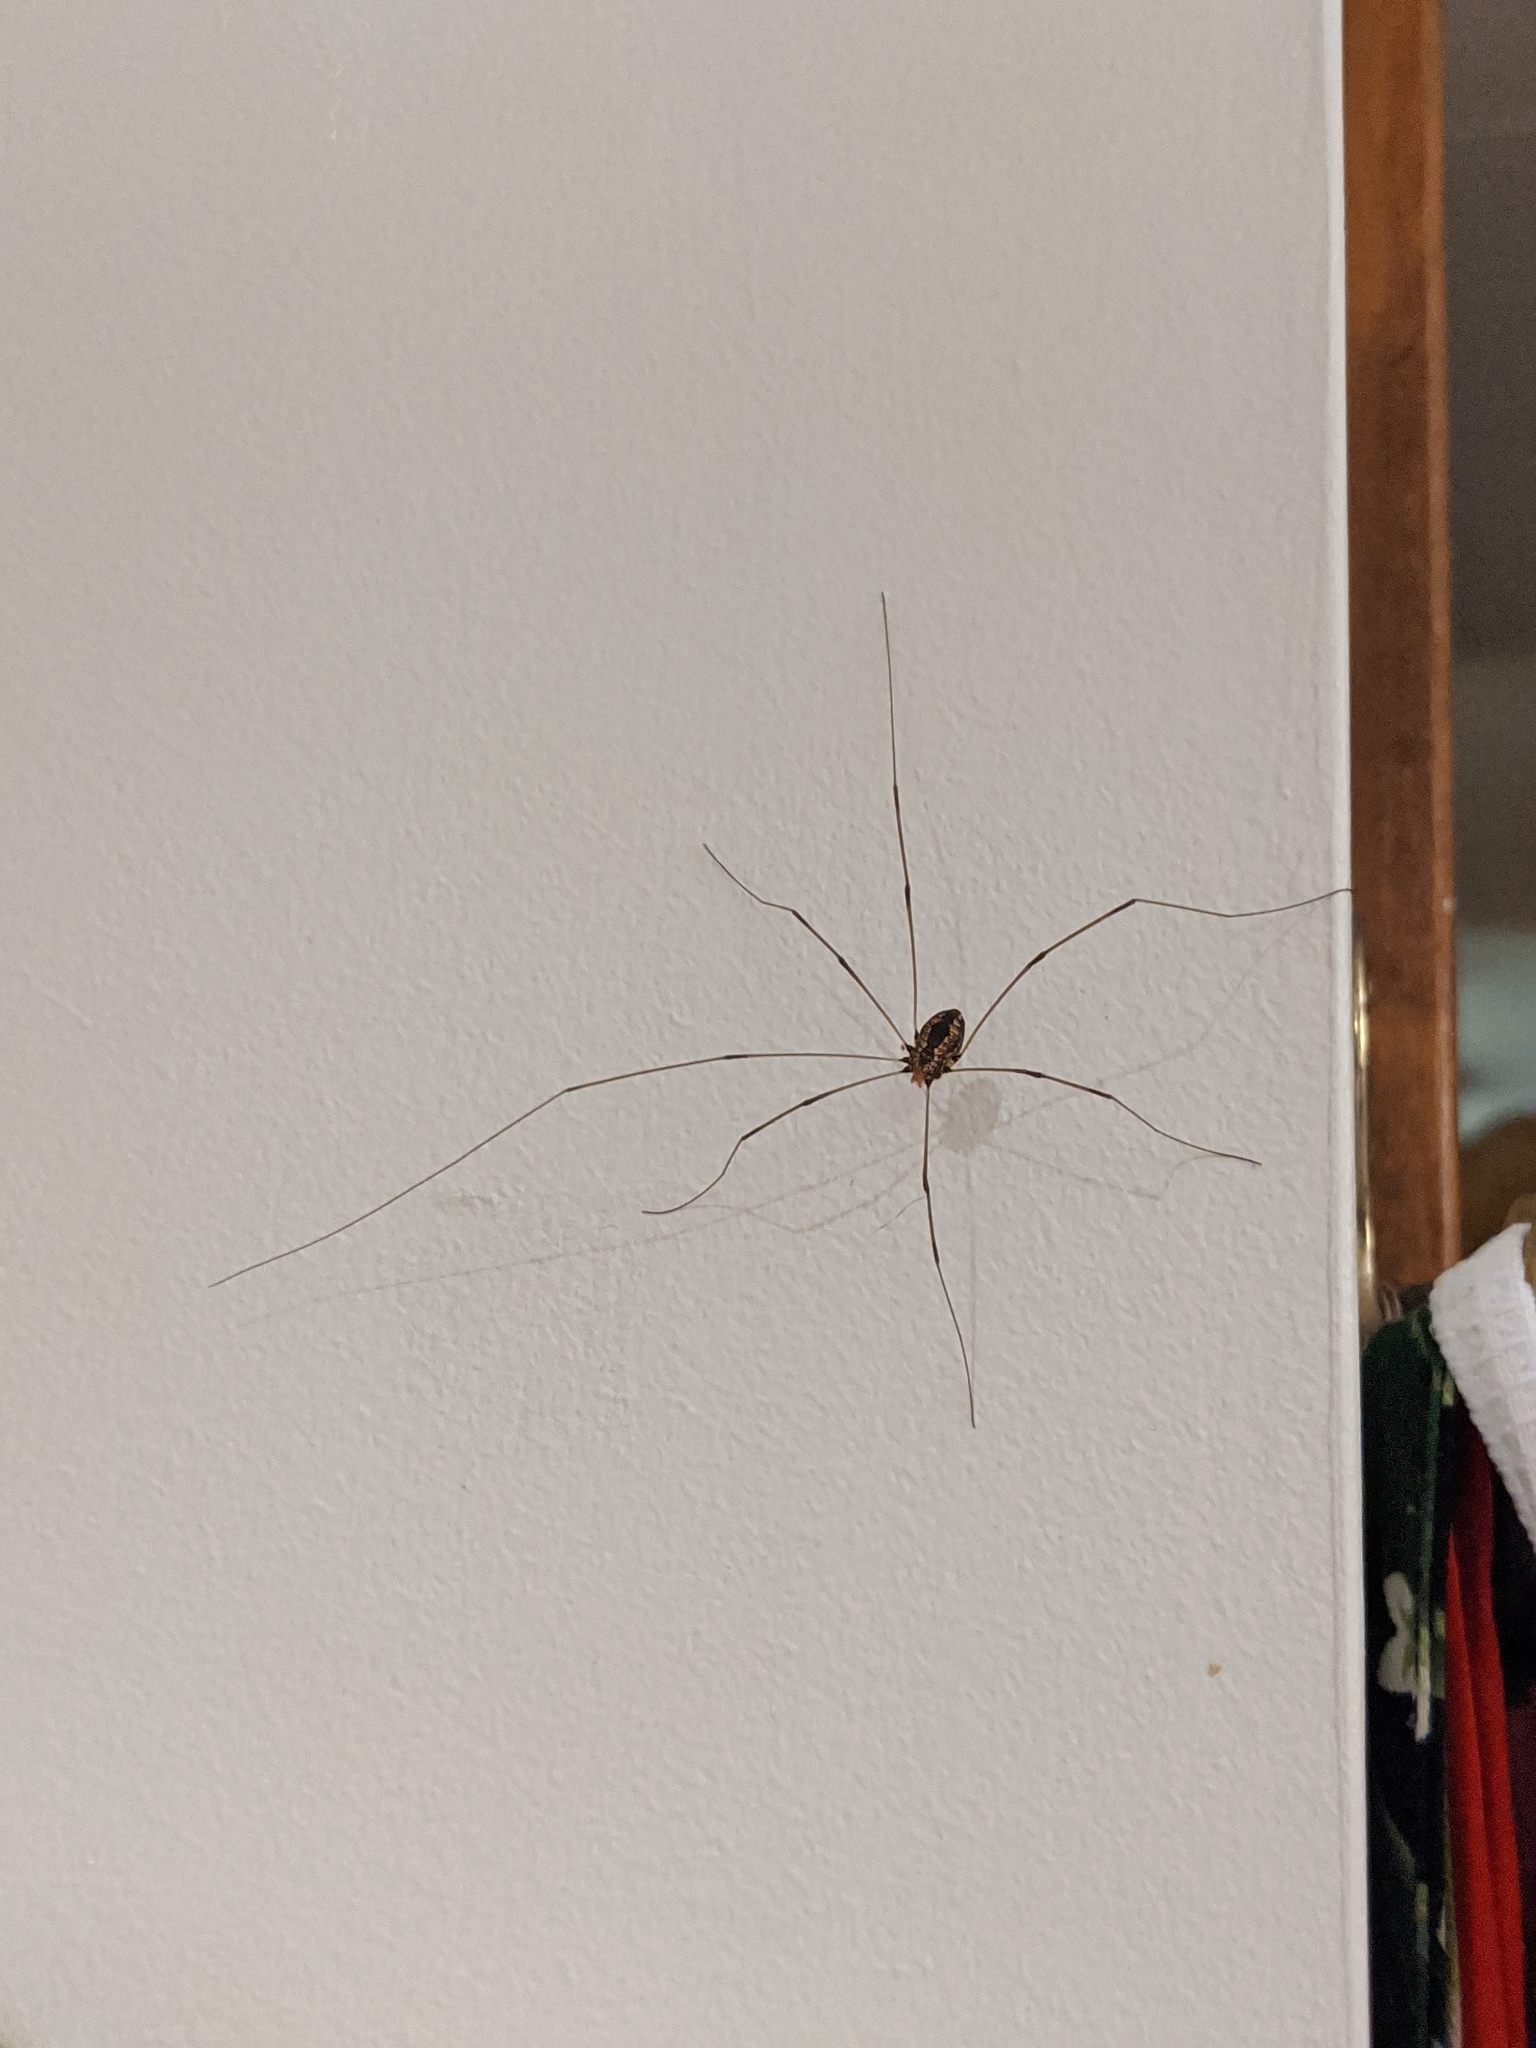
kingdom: Animalia
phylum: Arthropoda
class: Arachnida
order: Opiliones
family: Sclerosomatidae
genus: Leiobunum
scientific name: Leiobunum vittatum
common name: Eastern harvestman
